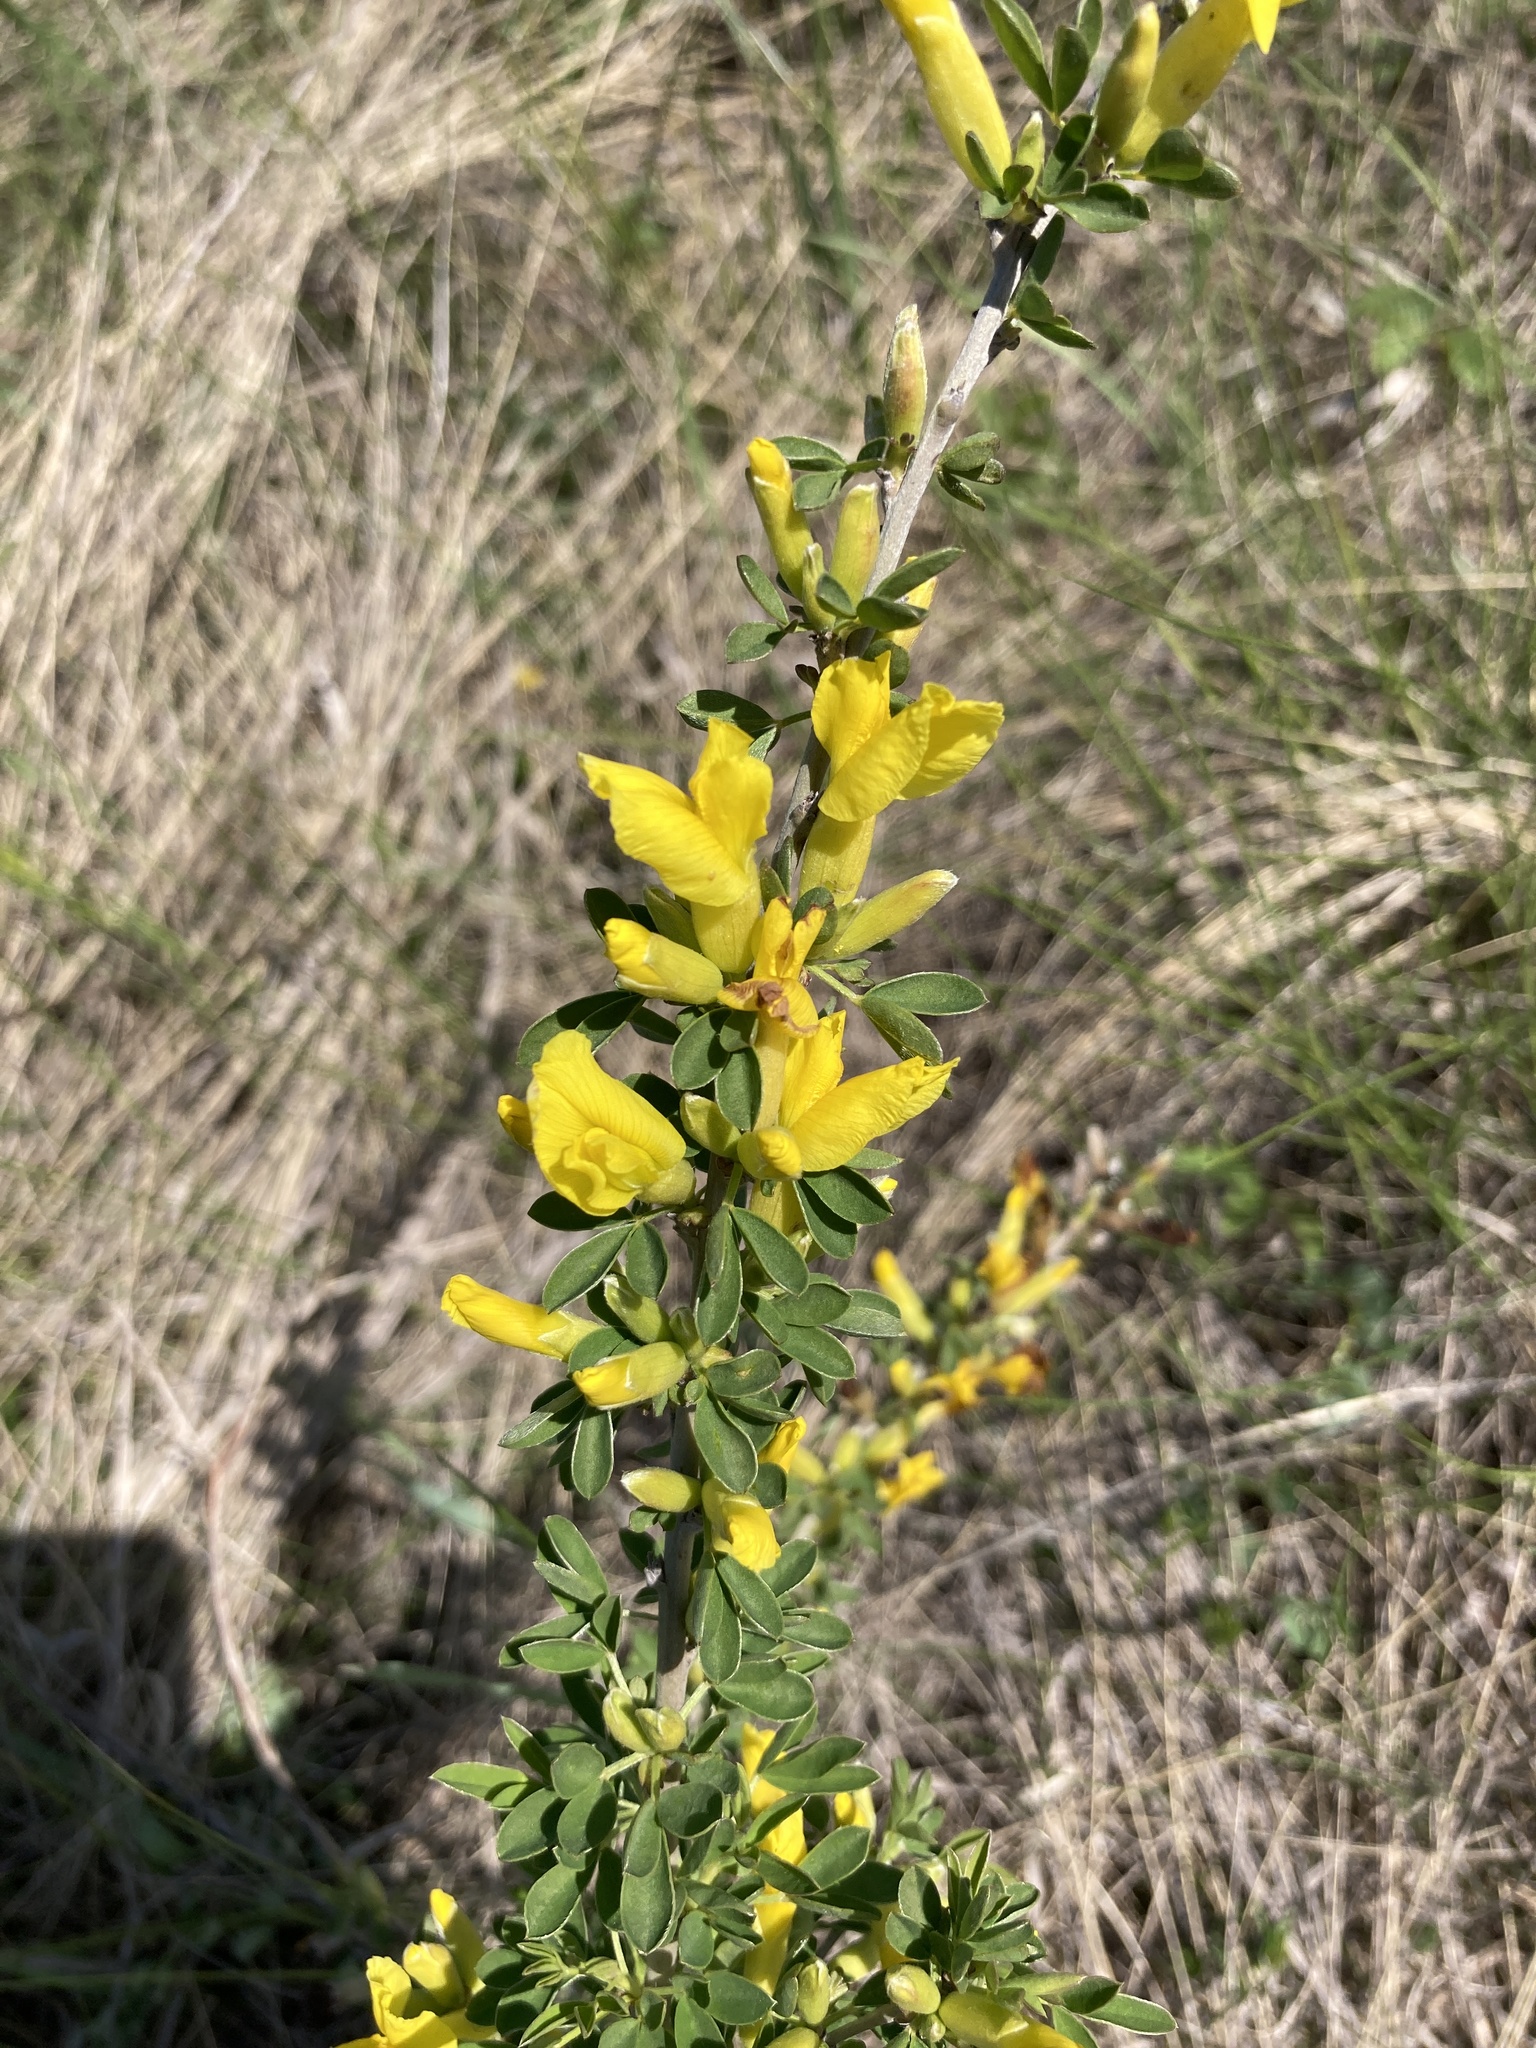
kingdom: Plantae
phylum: Tracheophyta
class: Magnoliopsida
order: Fabales
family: Fabaceae
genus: Chamaecytisus
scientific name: Chamaecytisus ruthenicus
